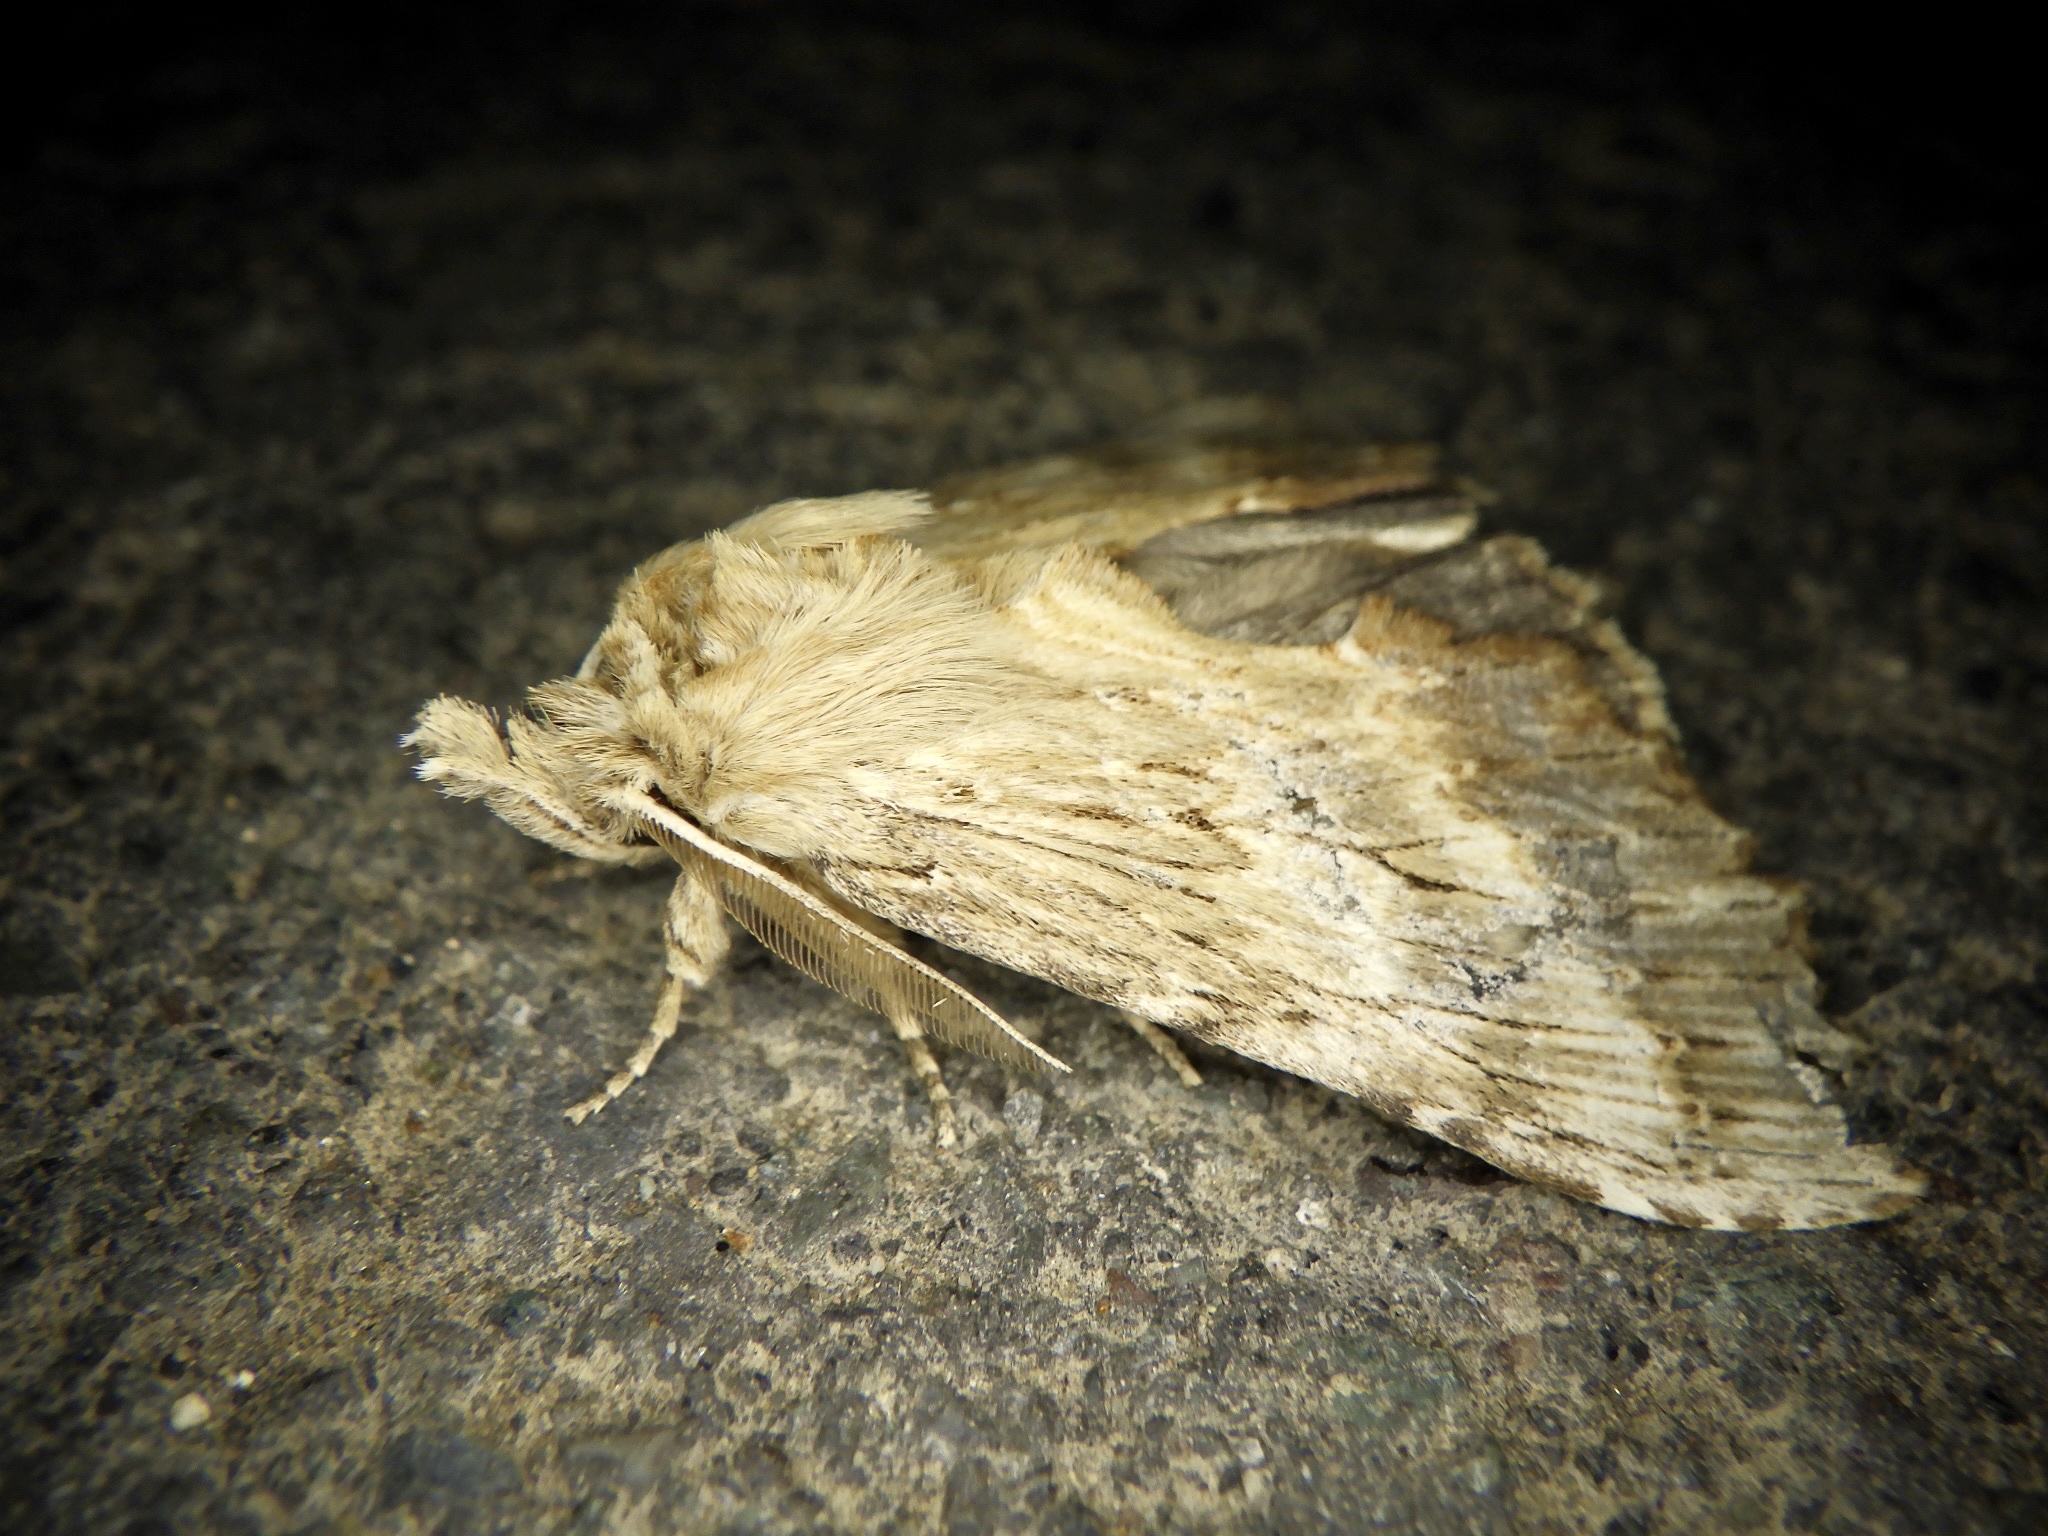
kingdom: Animalia
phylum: Arthropoda
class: Insecta
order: Lepidoptera
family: Notodontidae
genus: Pterostoma
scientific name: Pterostoma gigantina
